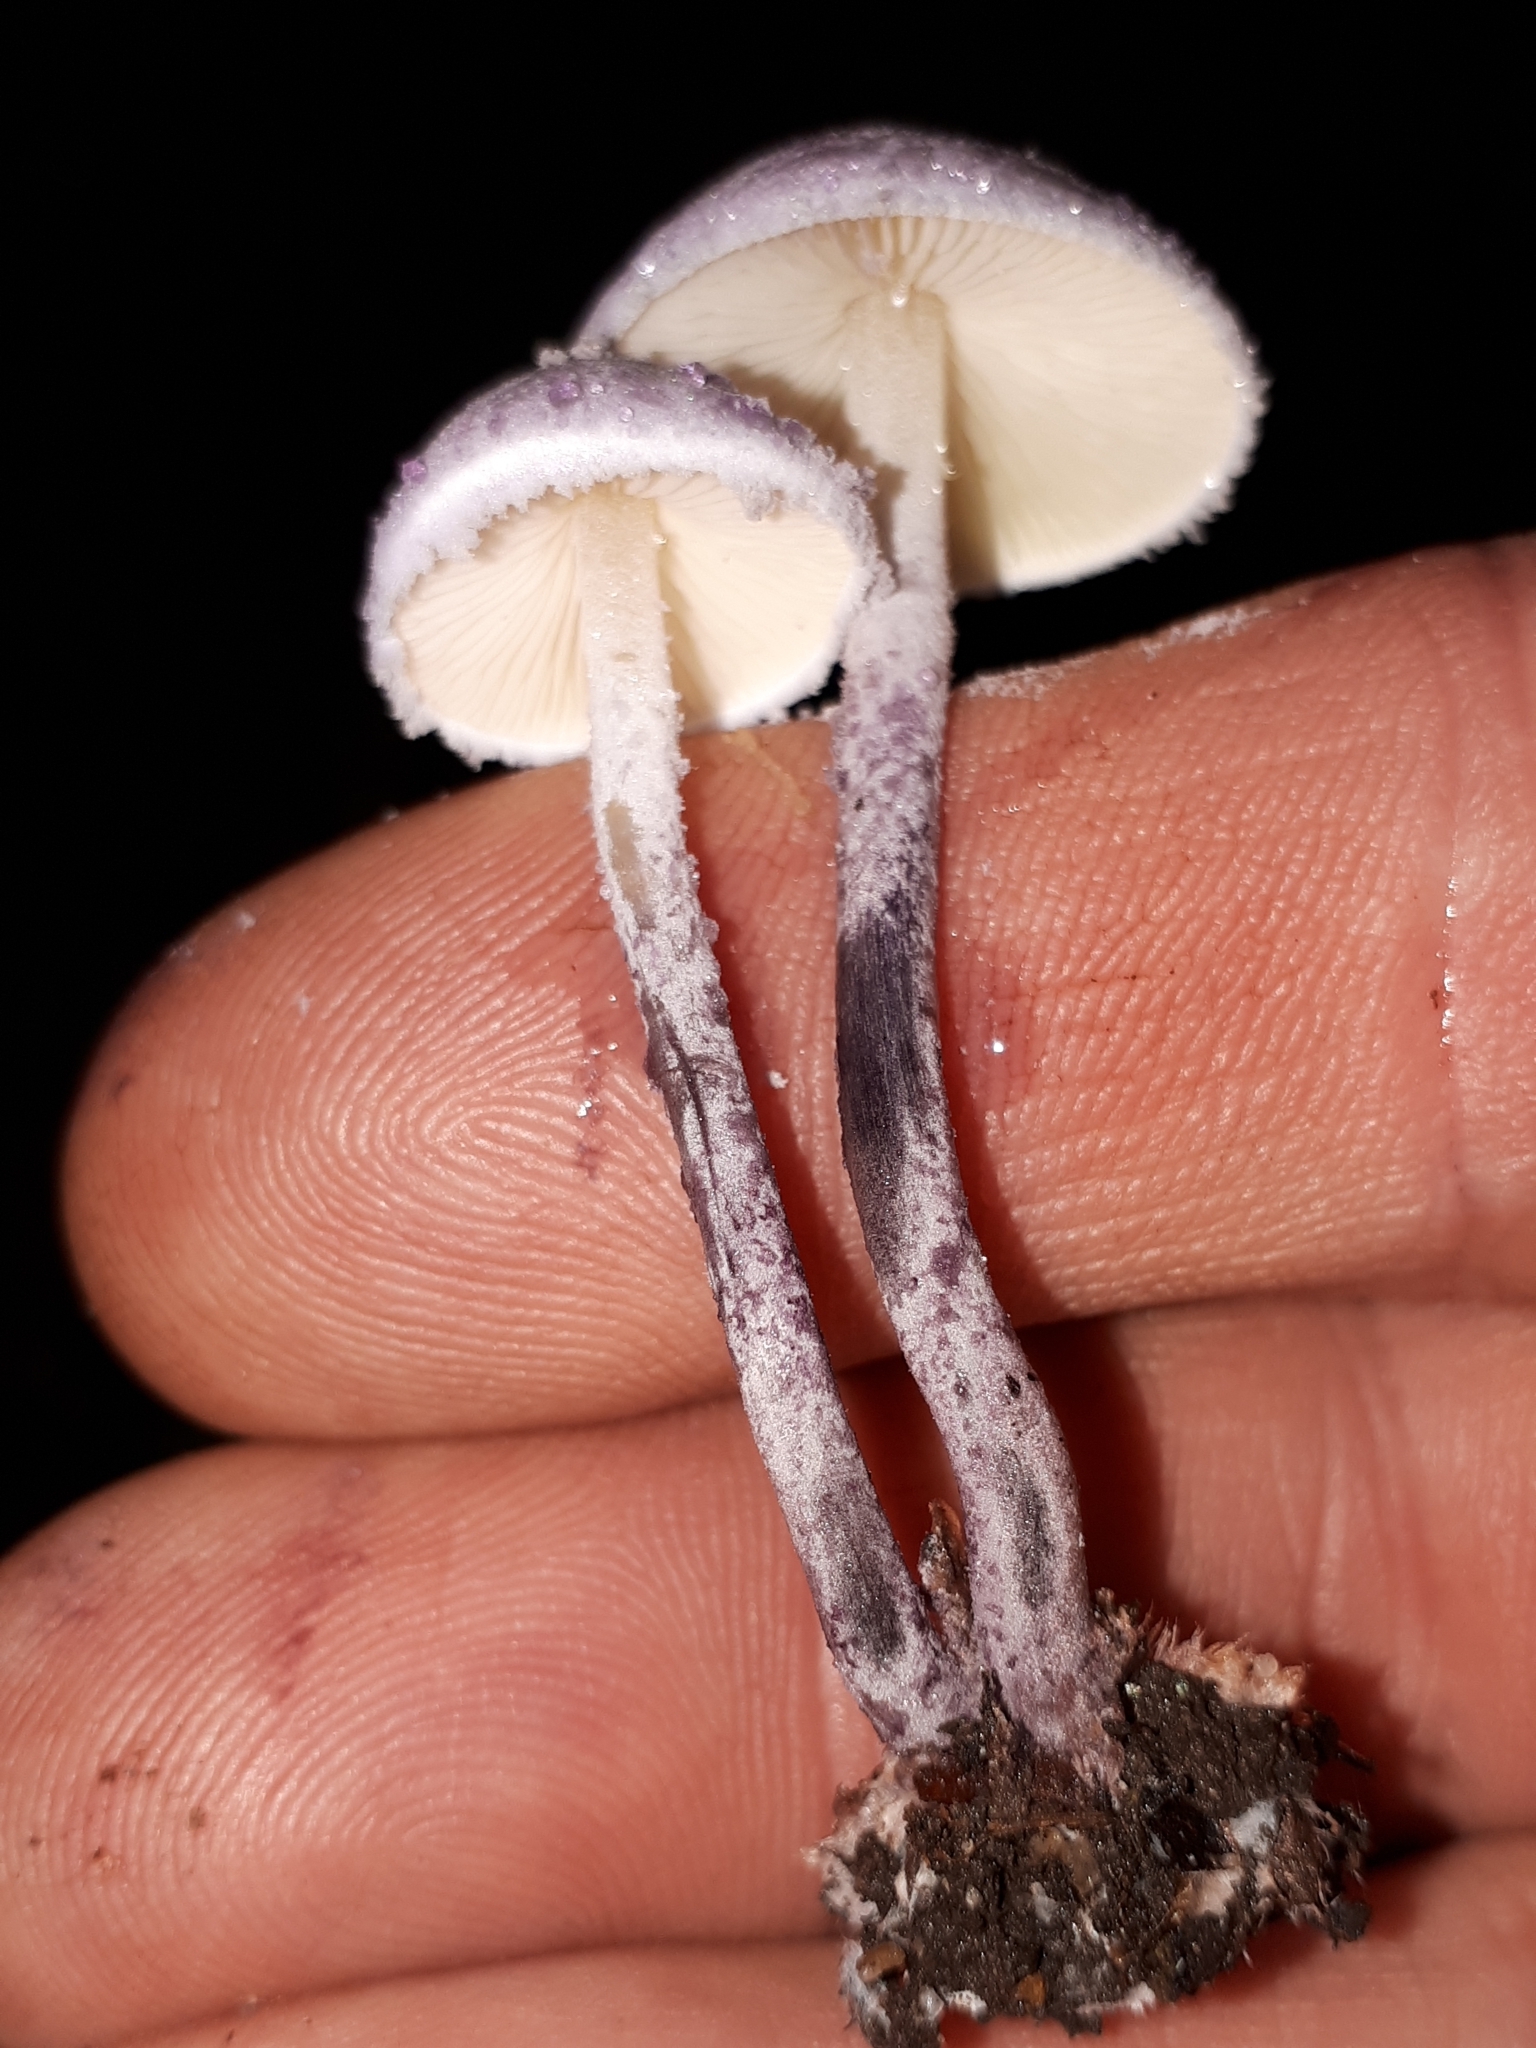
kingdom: Fungi
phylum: Basidiomycota
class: Agaricomycetes
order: Agaricales
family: Agaricaceae
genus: Cystolepiota
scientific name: Cystolepiota bucknallii
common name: Lilac dapperling
